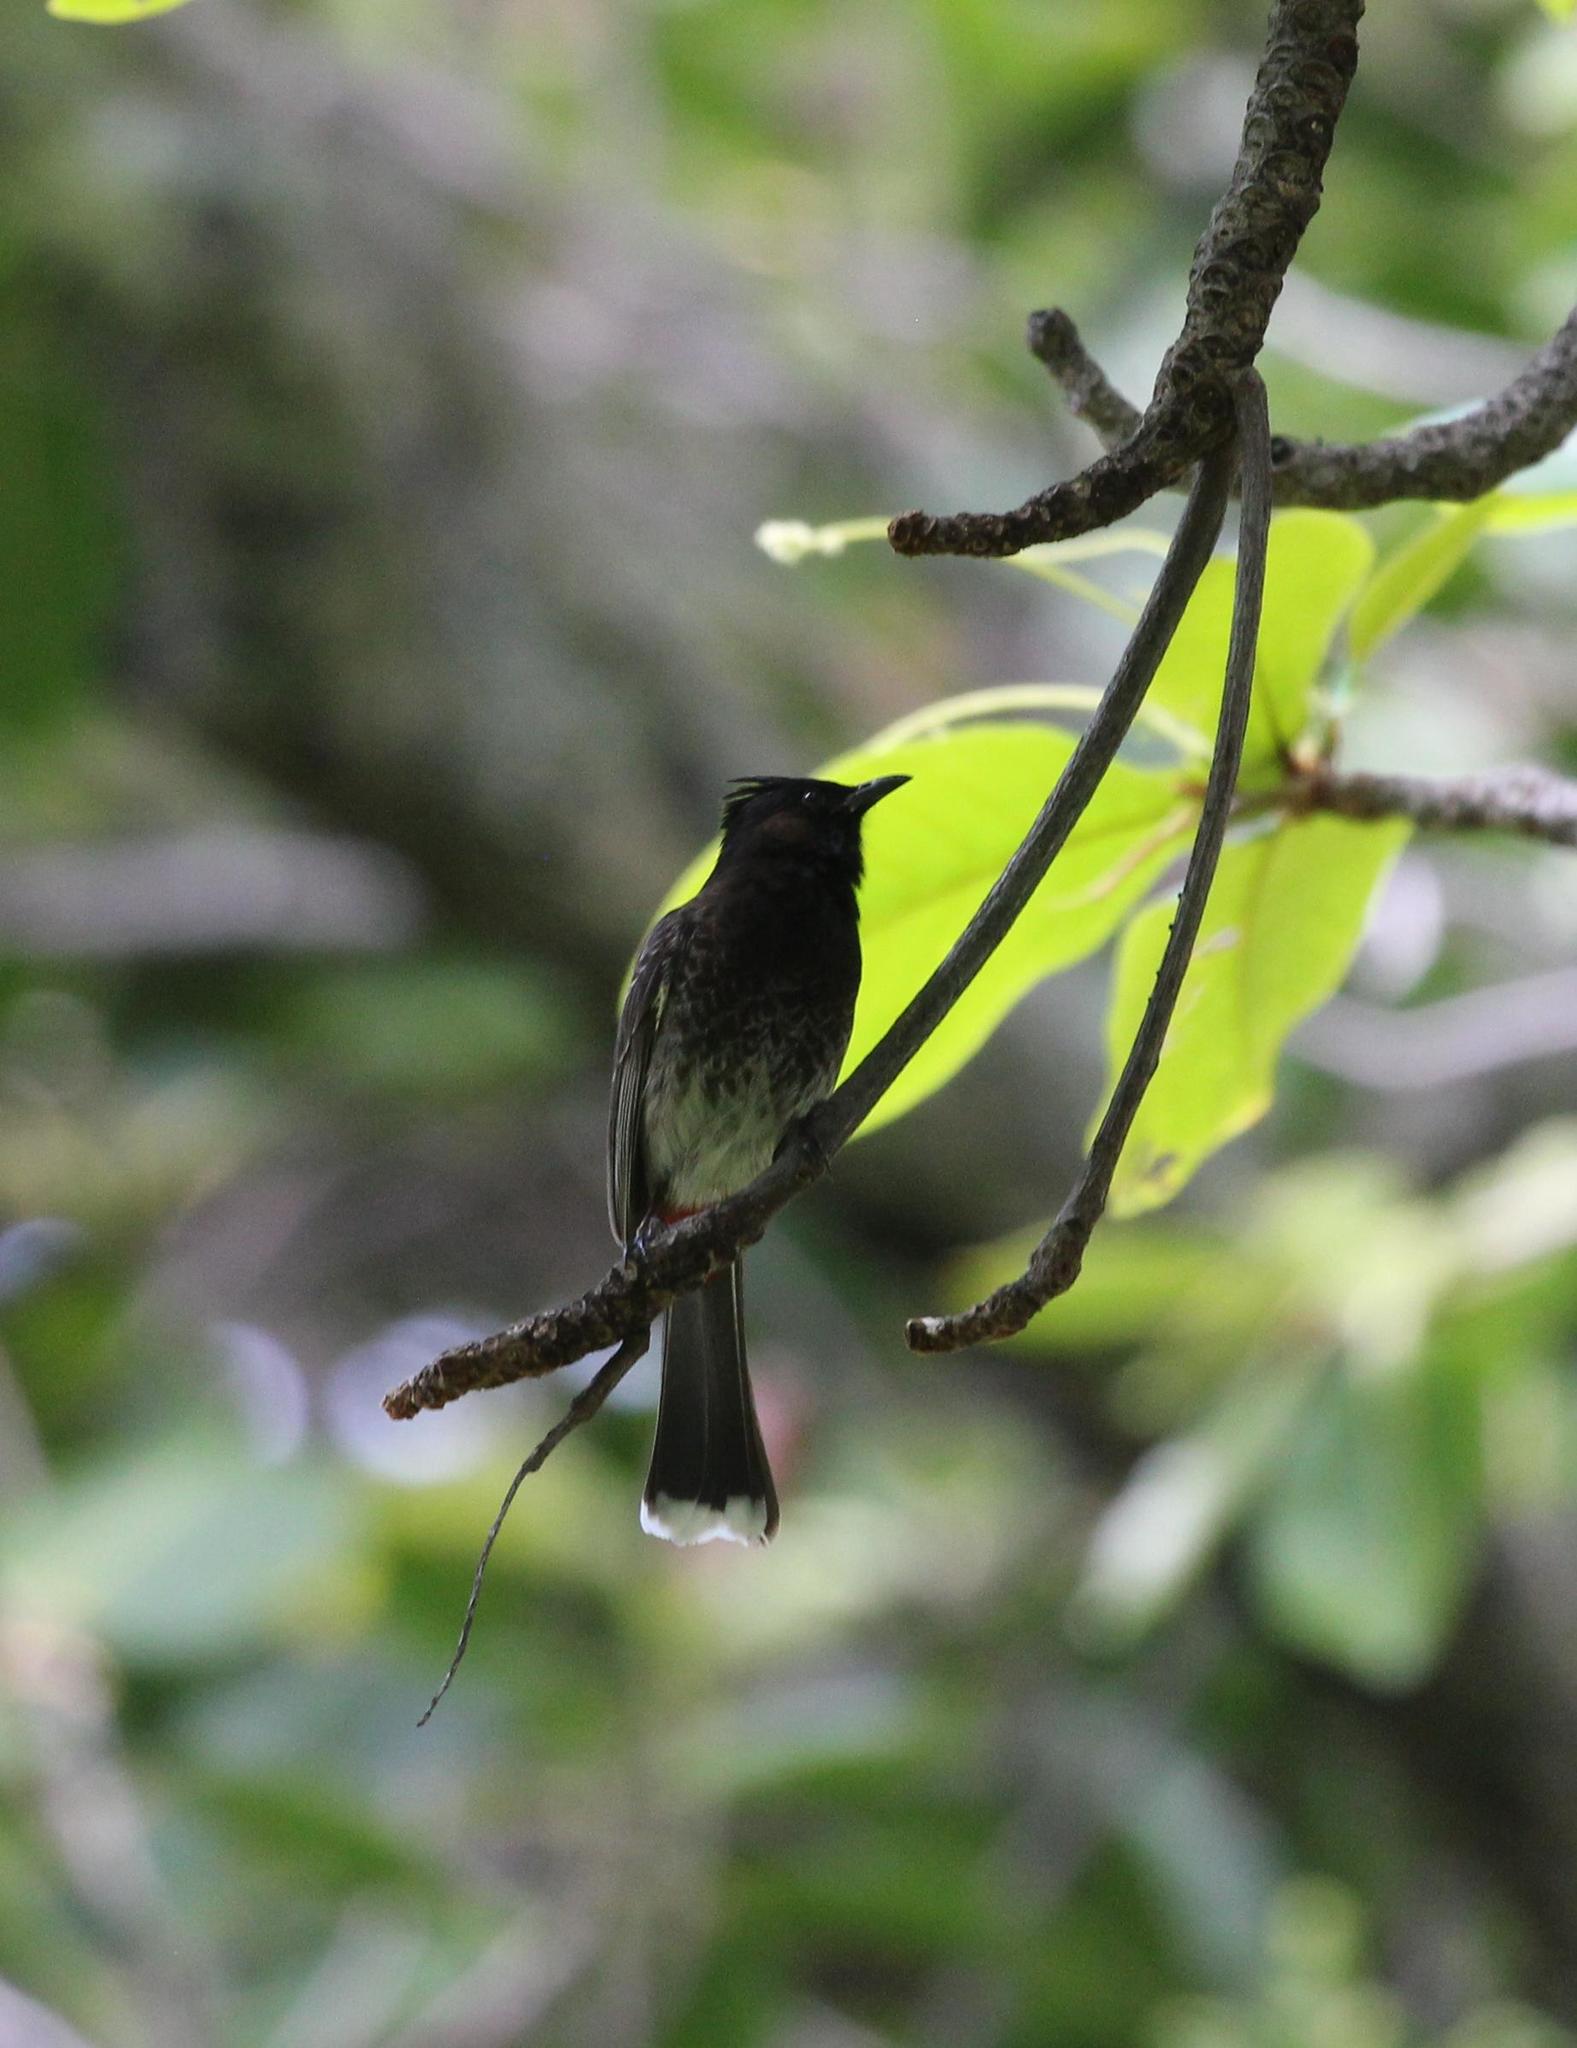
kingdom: Animalia
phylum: Chordata
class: Aves
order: Passeriformes
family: Pycnonotidae
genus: Pycnonotus
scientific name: Pycnonotus cafer
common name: Red-vented bulbul
